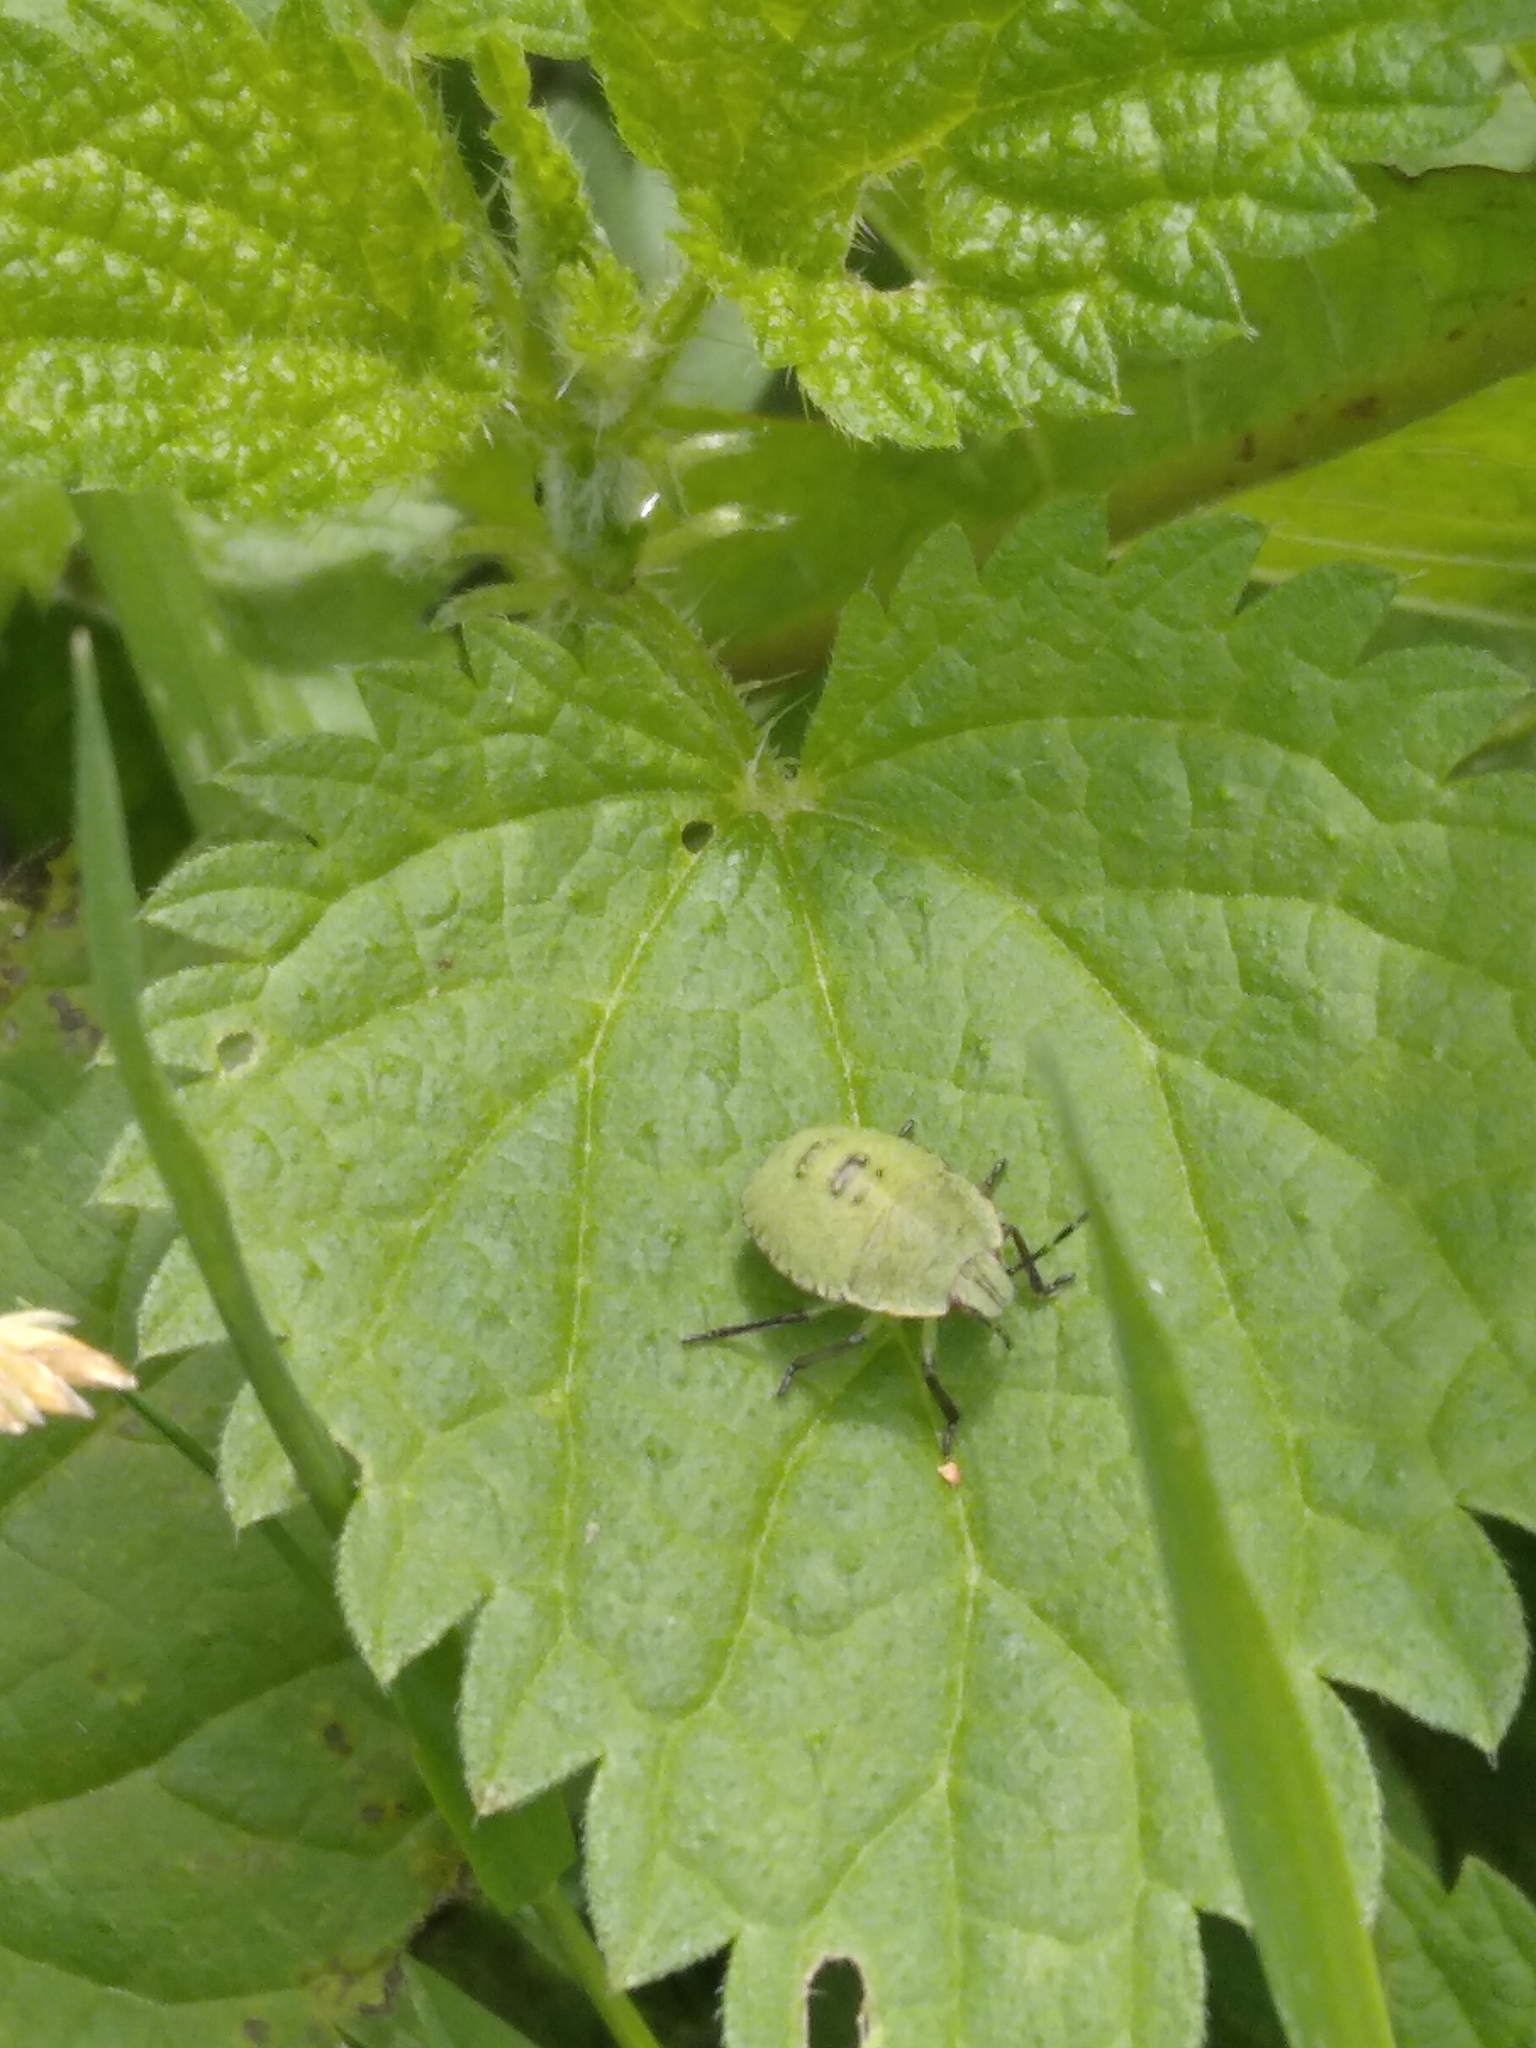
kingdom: Animalia
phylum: Arthropoda
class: Insecta
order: Hemiptera
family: Pentatomidae
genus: Palomena
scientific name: Palomena prasina
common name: Green shieldbug
